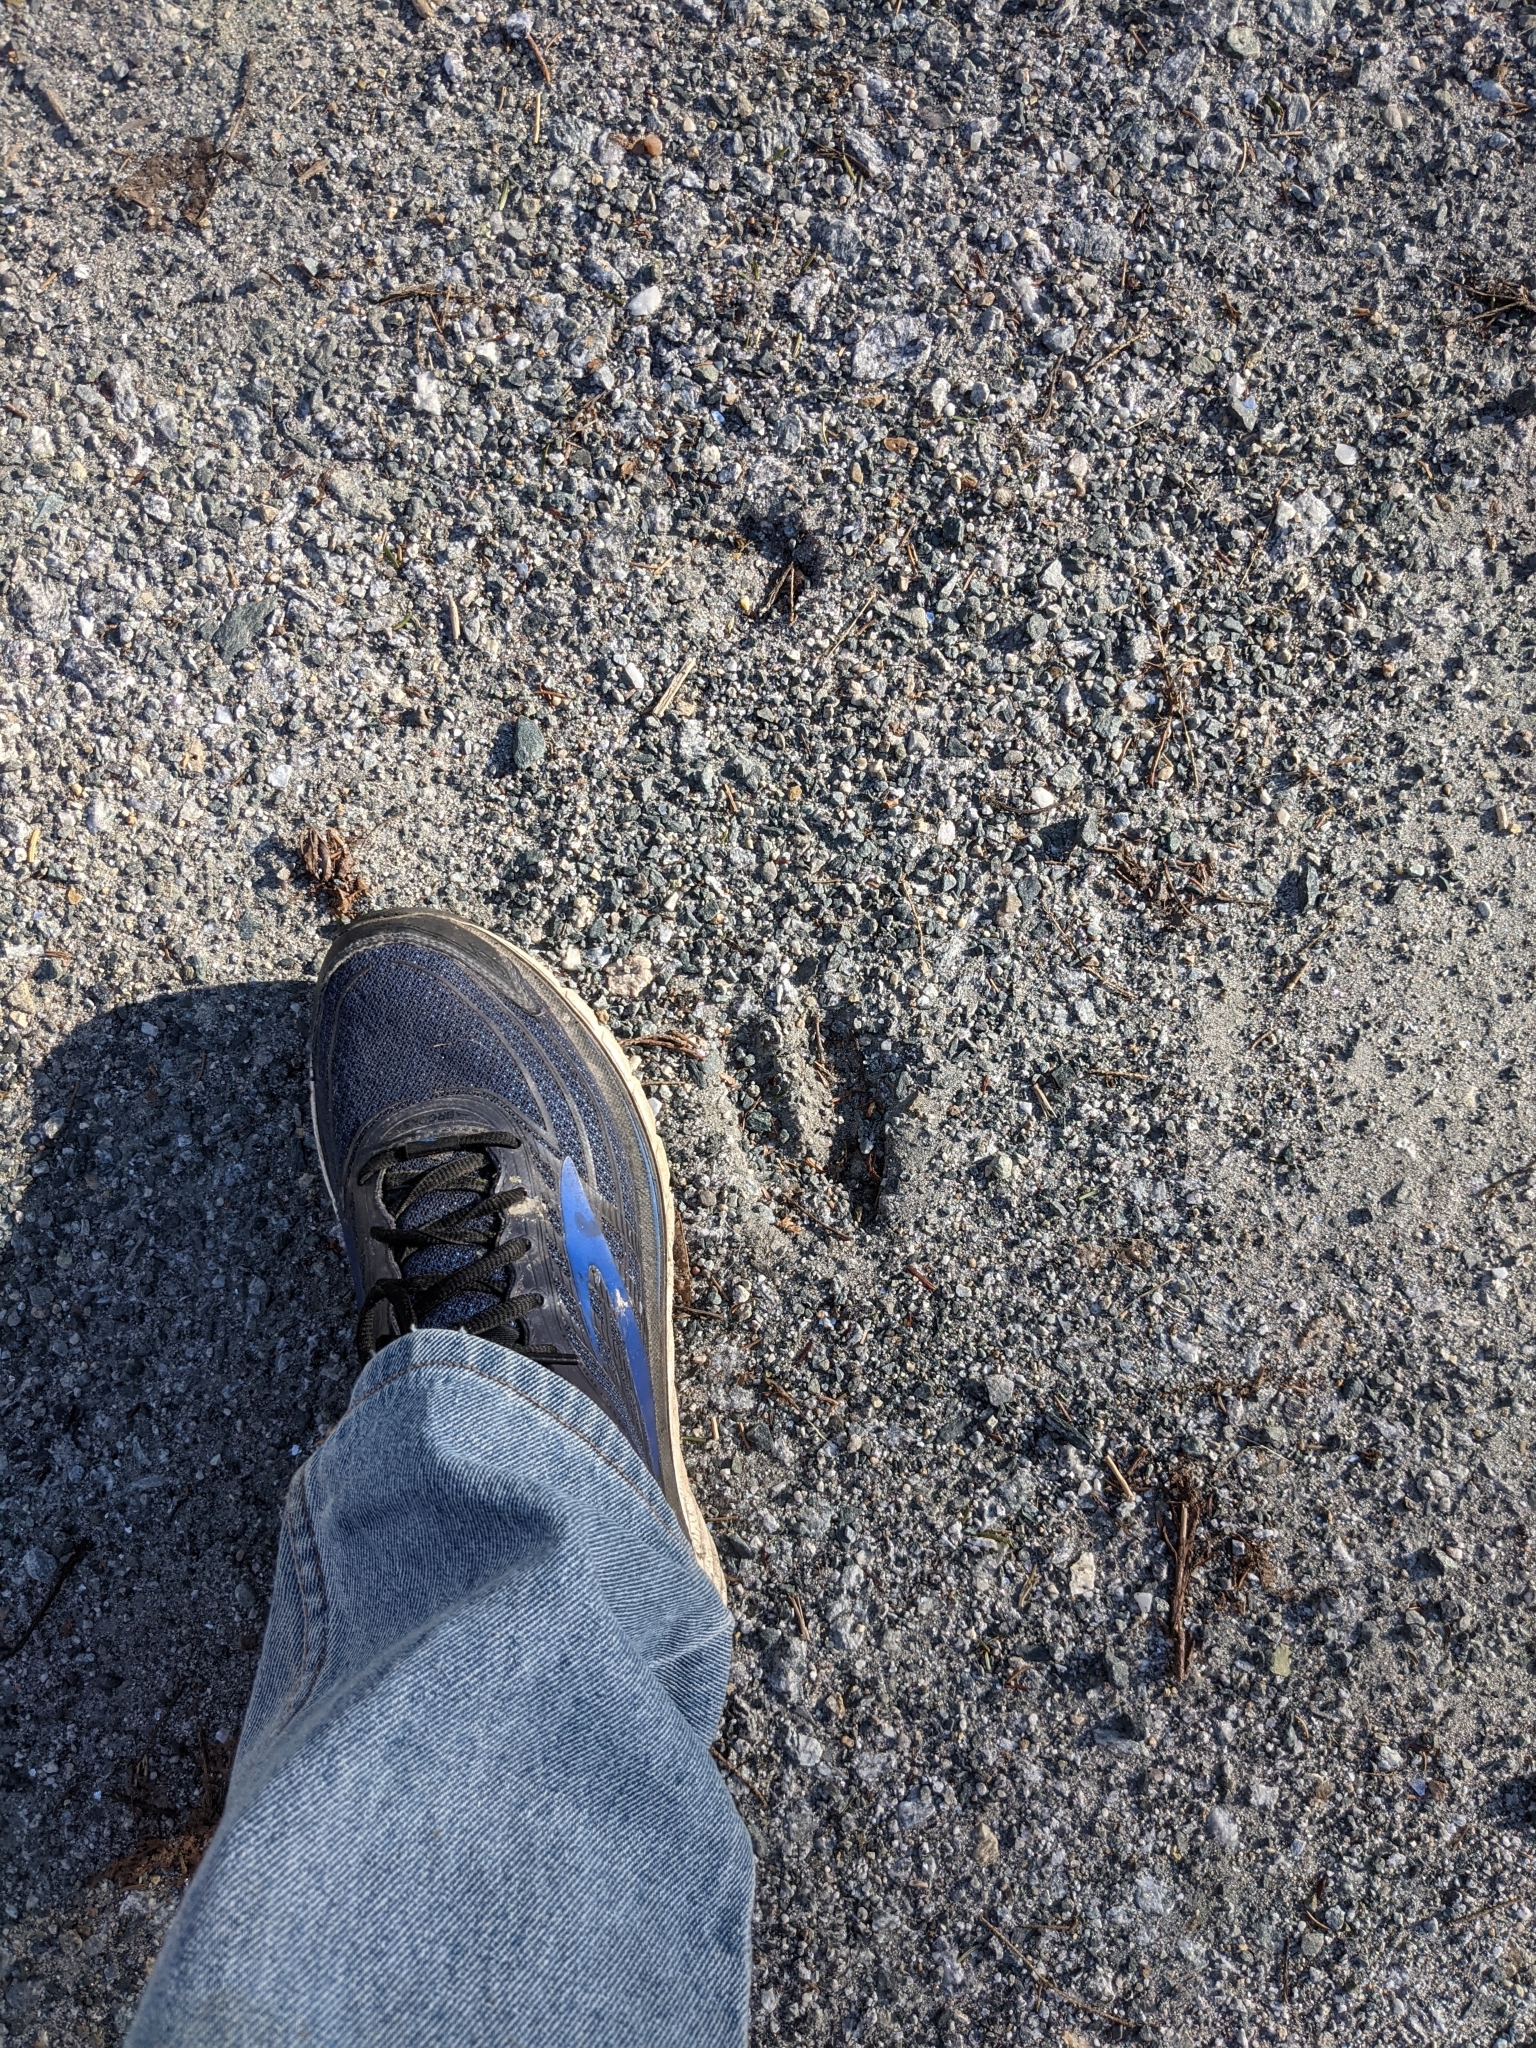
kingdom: Animalia
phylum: Chordata
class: Mammalia
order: Artiodactyla
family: Cervidae
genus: Odocoileus
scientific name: Odocoileus virginianus
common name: White-tailed deer
